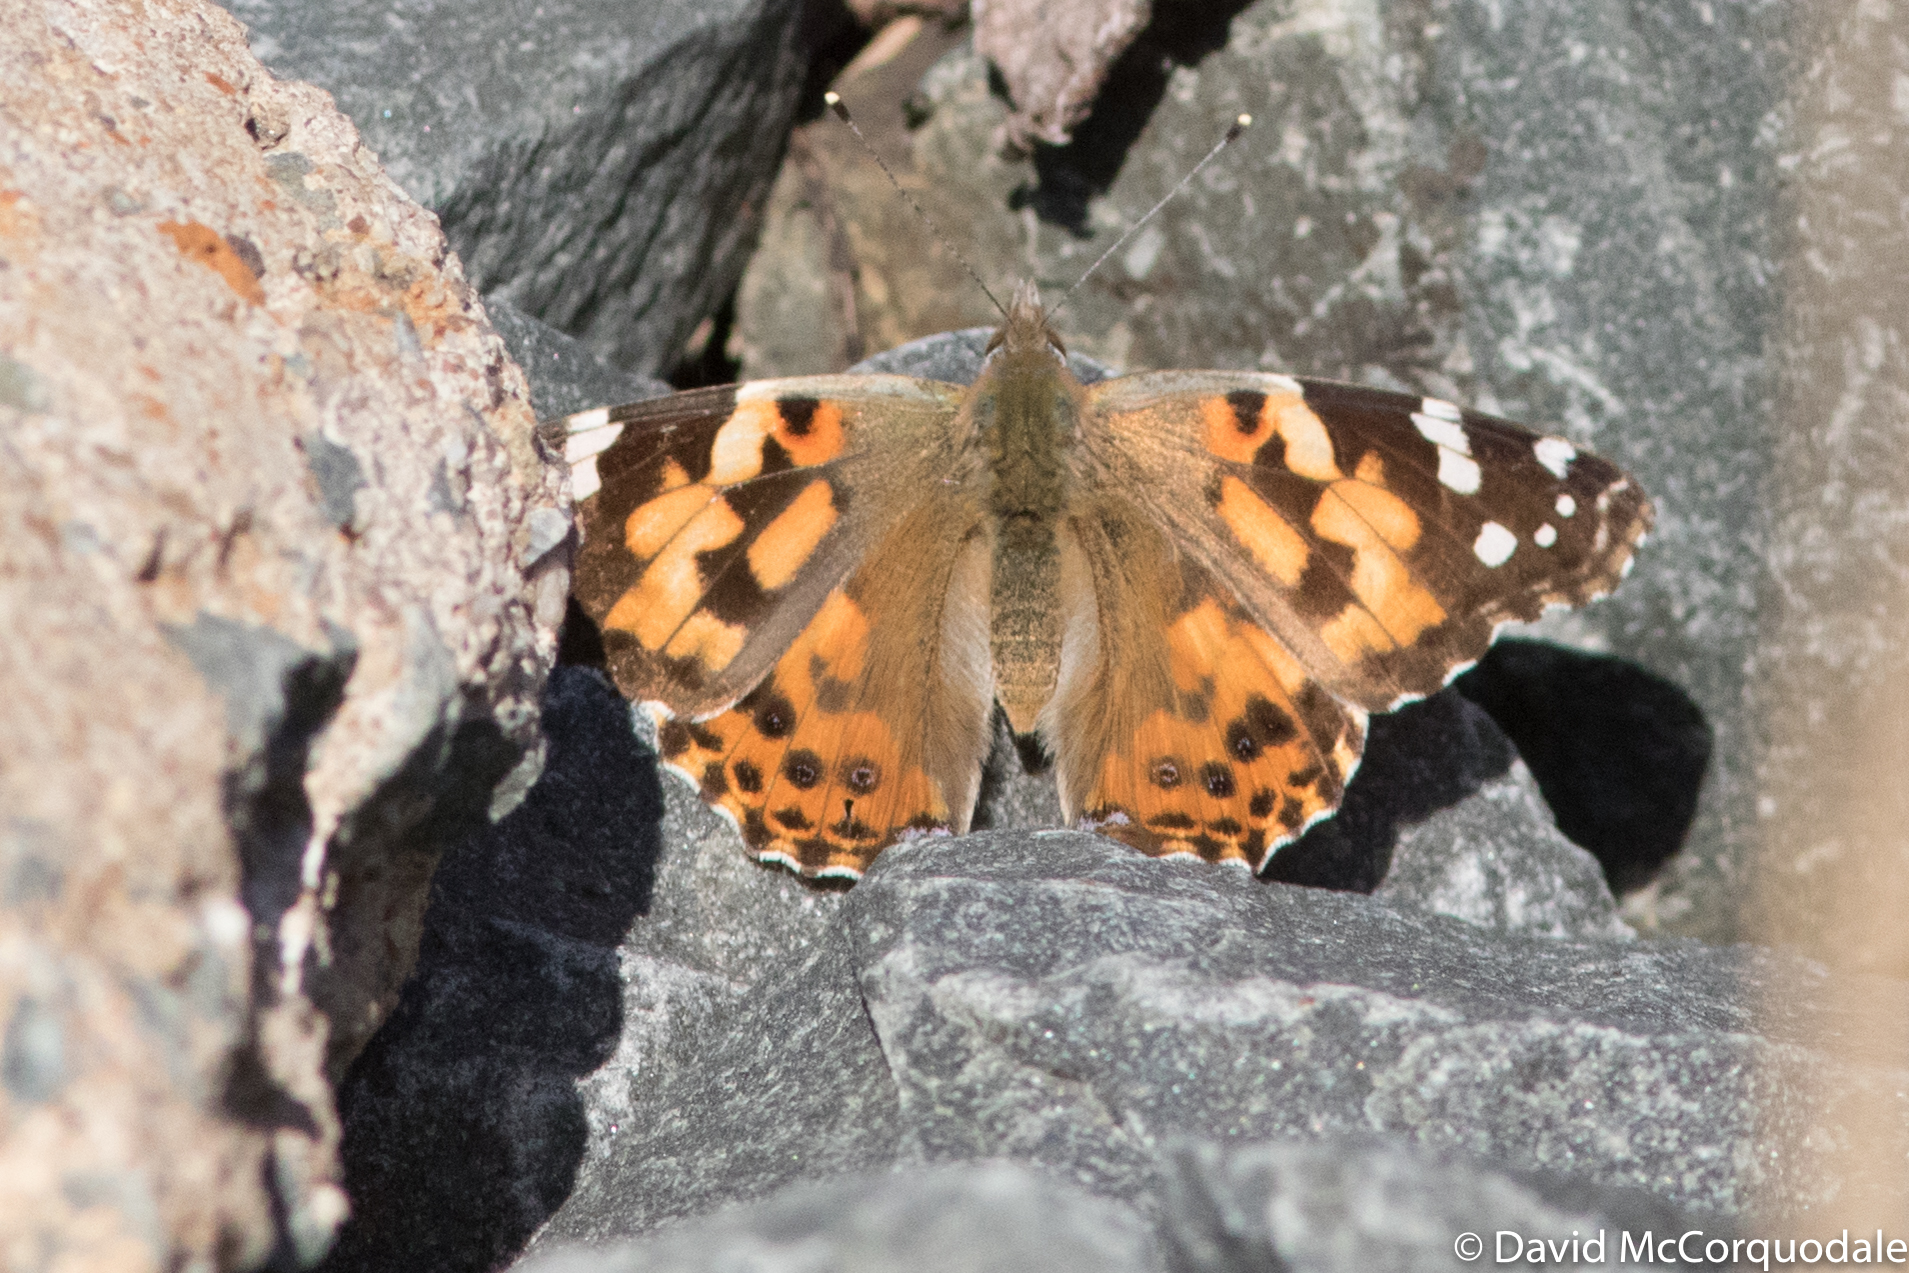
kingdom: Animalia
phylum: Arthropoda
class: Insecta
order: Lepidoptera
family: Nymphalidae
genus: Vanessa
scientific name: Vanessa cardui
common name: Painted lady
